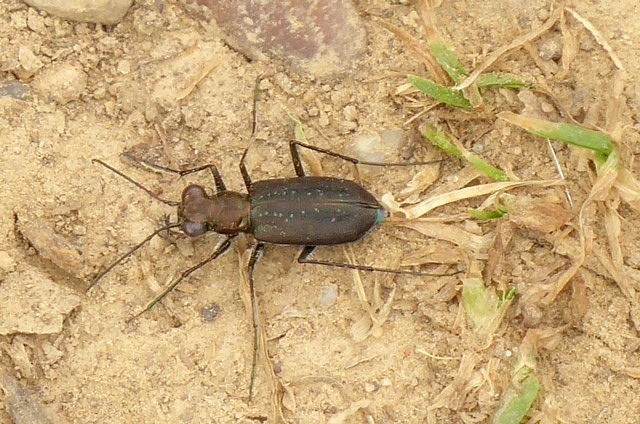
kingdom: Animalia
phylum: Arthropoda
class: Insecta
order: Coleoptera
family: Carabidae
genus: Cicindela
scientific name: Cicindela punctulata
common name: Punctured tiger beetle
